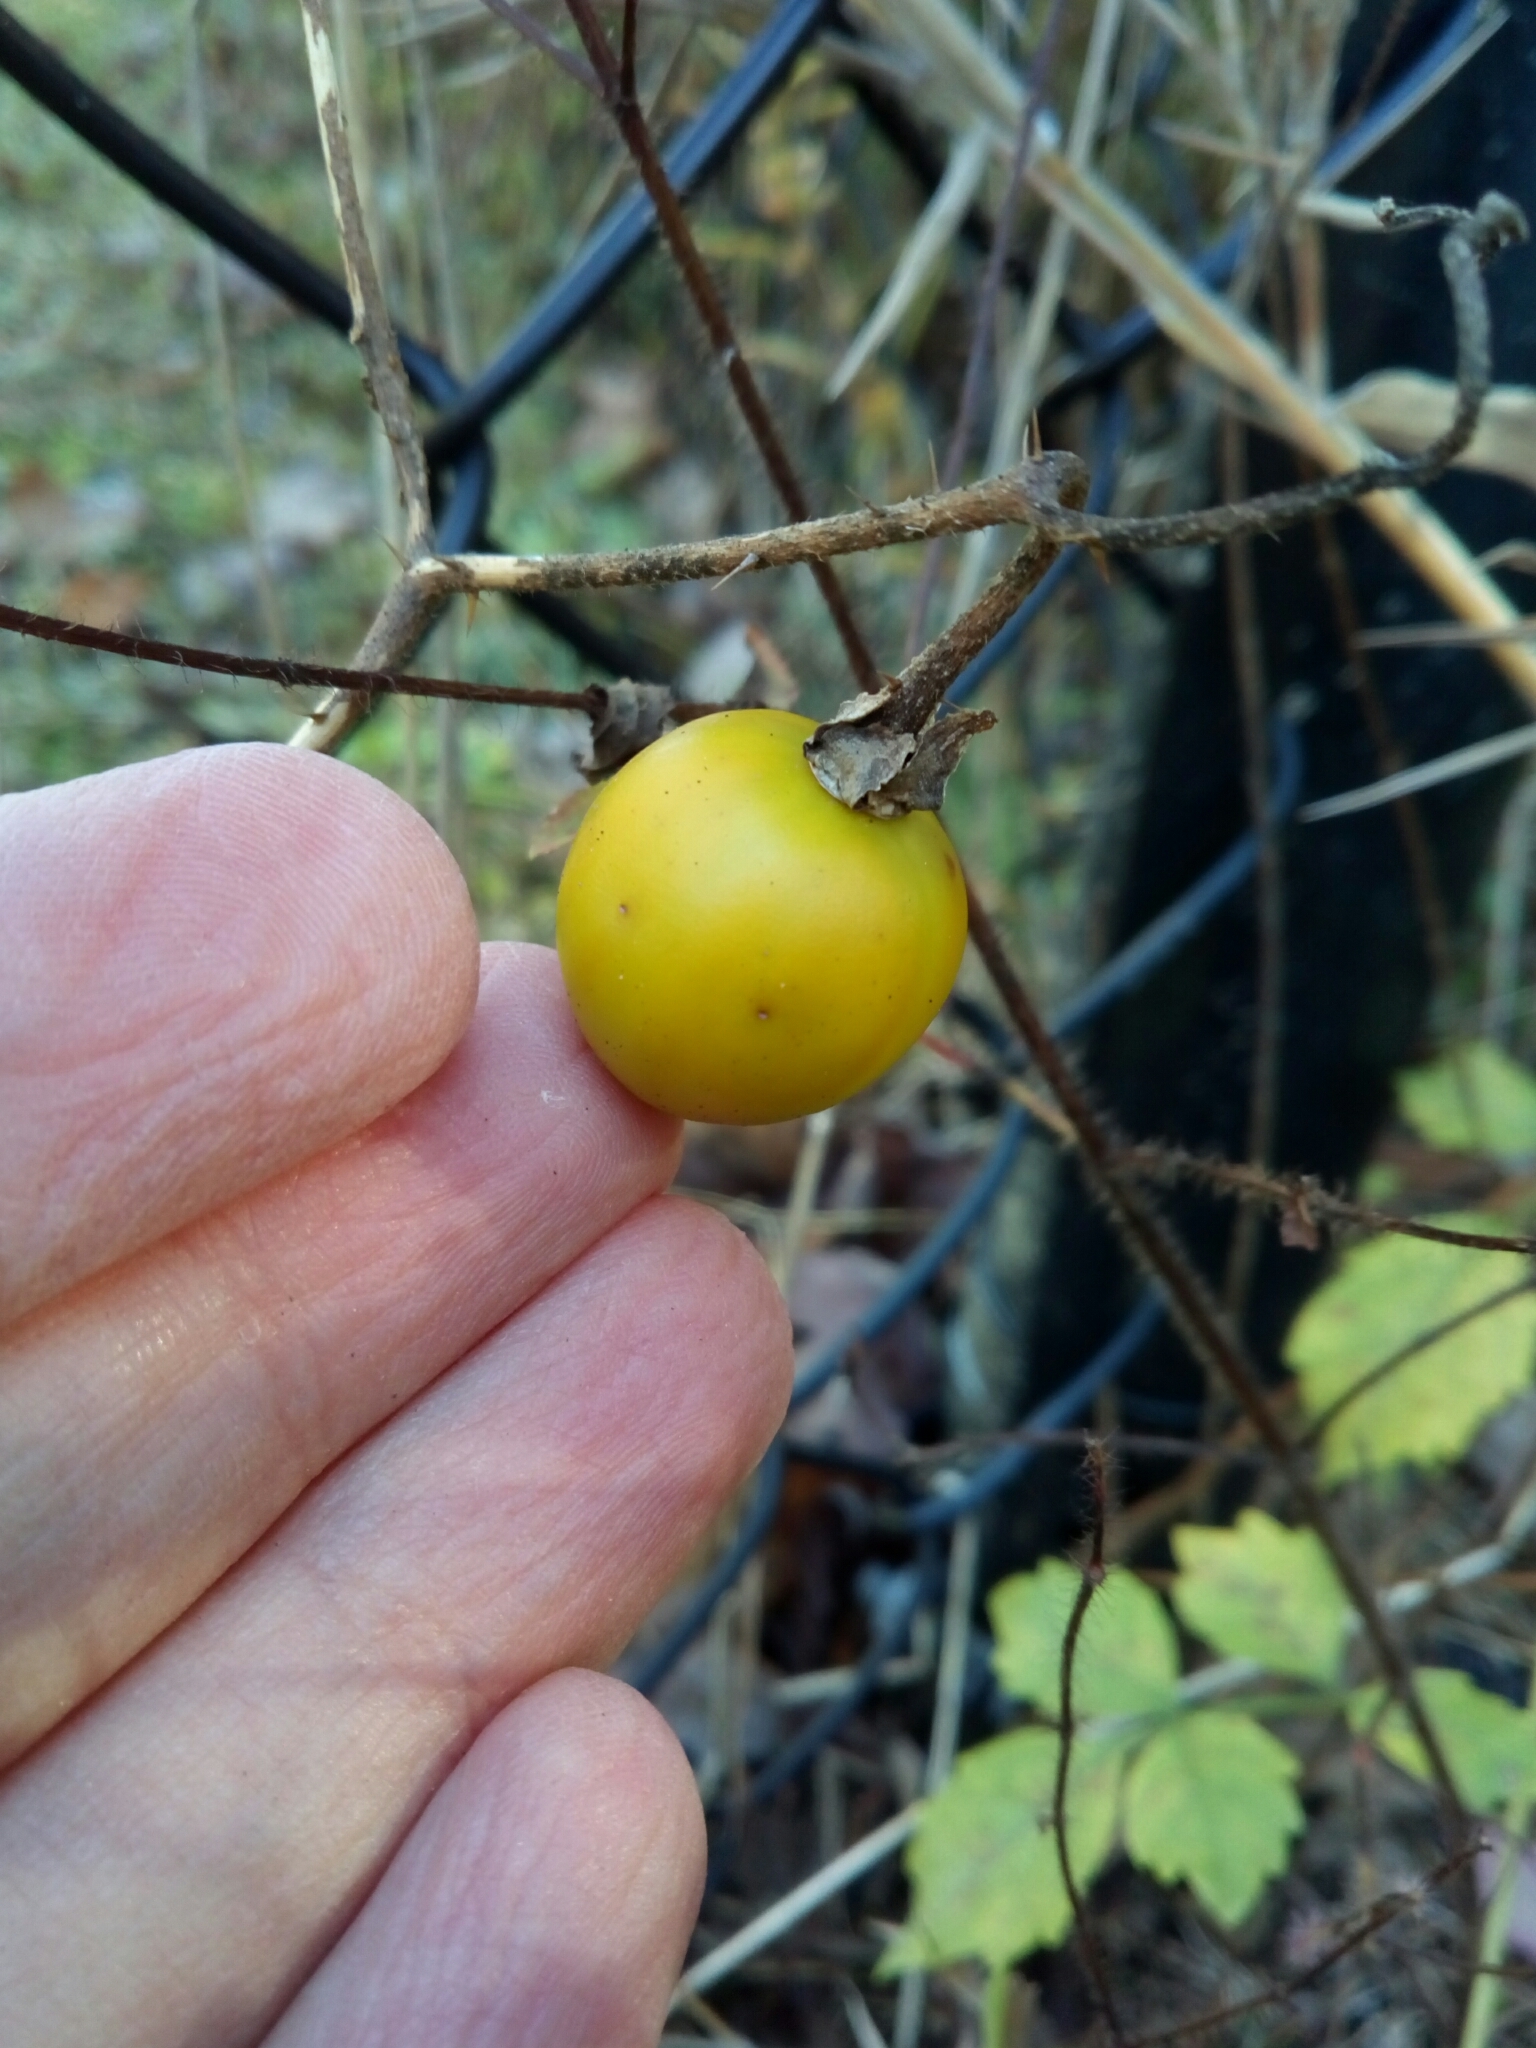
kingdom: Plantae
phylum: Tracheophyta
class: Magnoliopsida
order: Solanales
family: Solanaceae
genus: Solanum
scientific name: Solanum carolinense
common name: Horse-nettle
